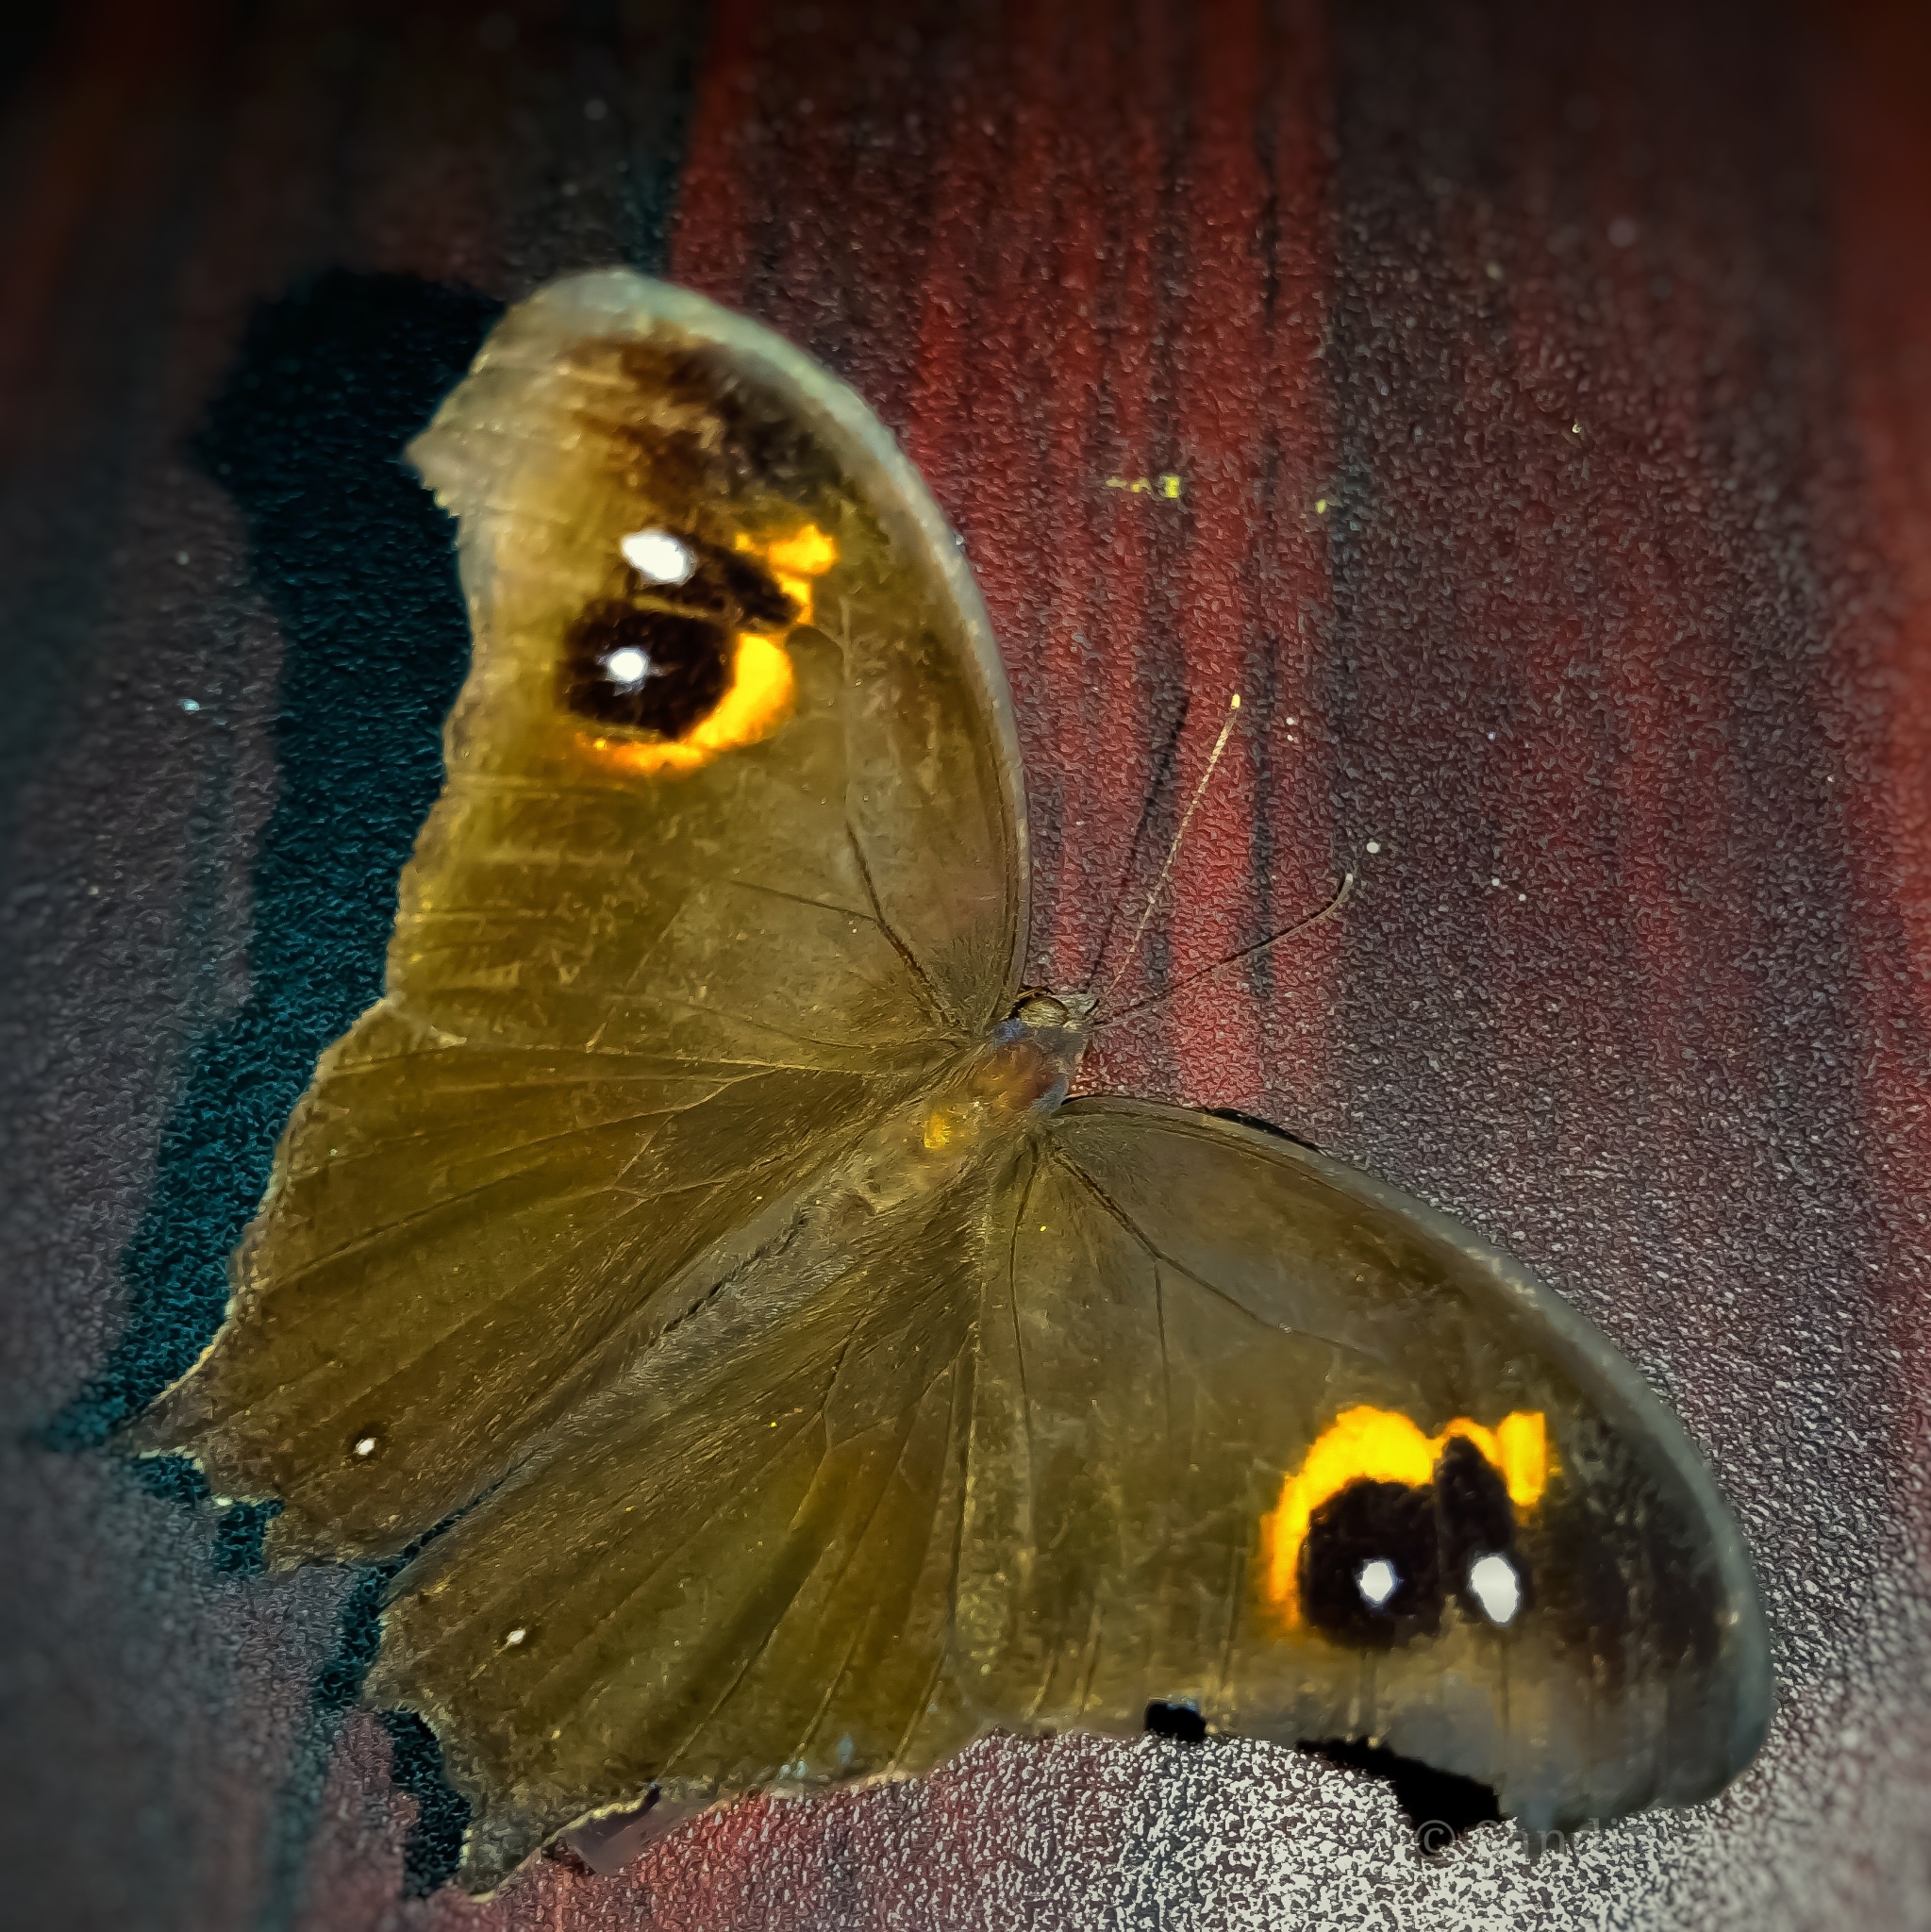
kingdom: Animalia
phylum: Arthropoda
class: Insecta
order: Lepidoptera
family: Nymphalidae
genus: Melanitis
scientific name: Melanitis leda
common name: Twilight brown
